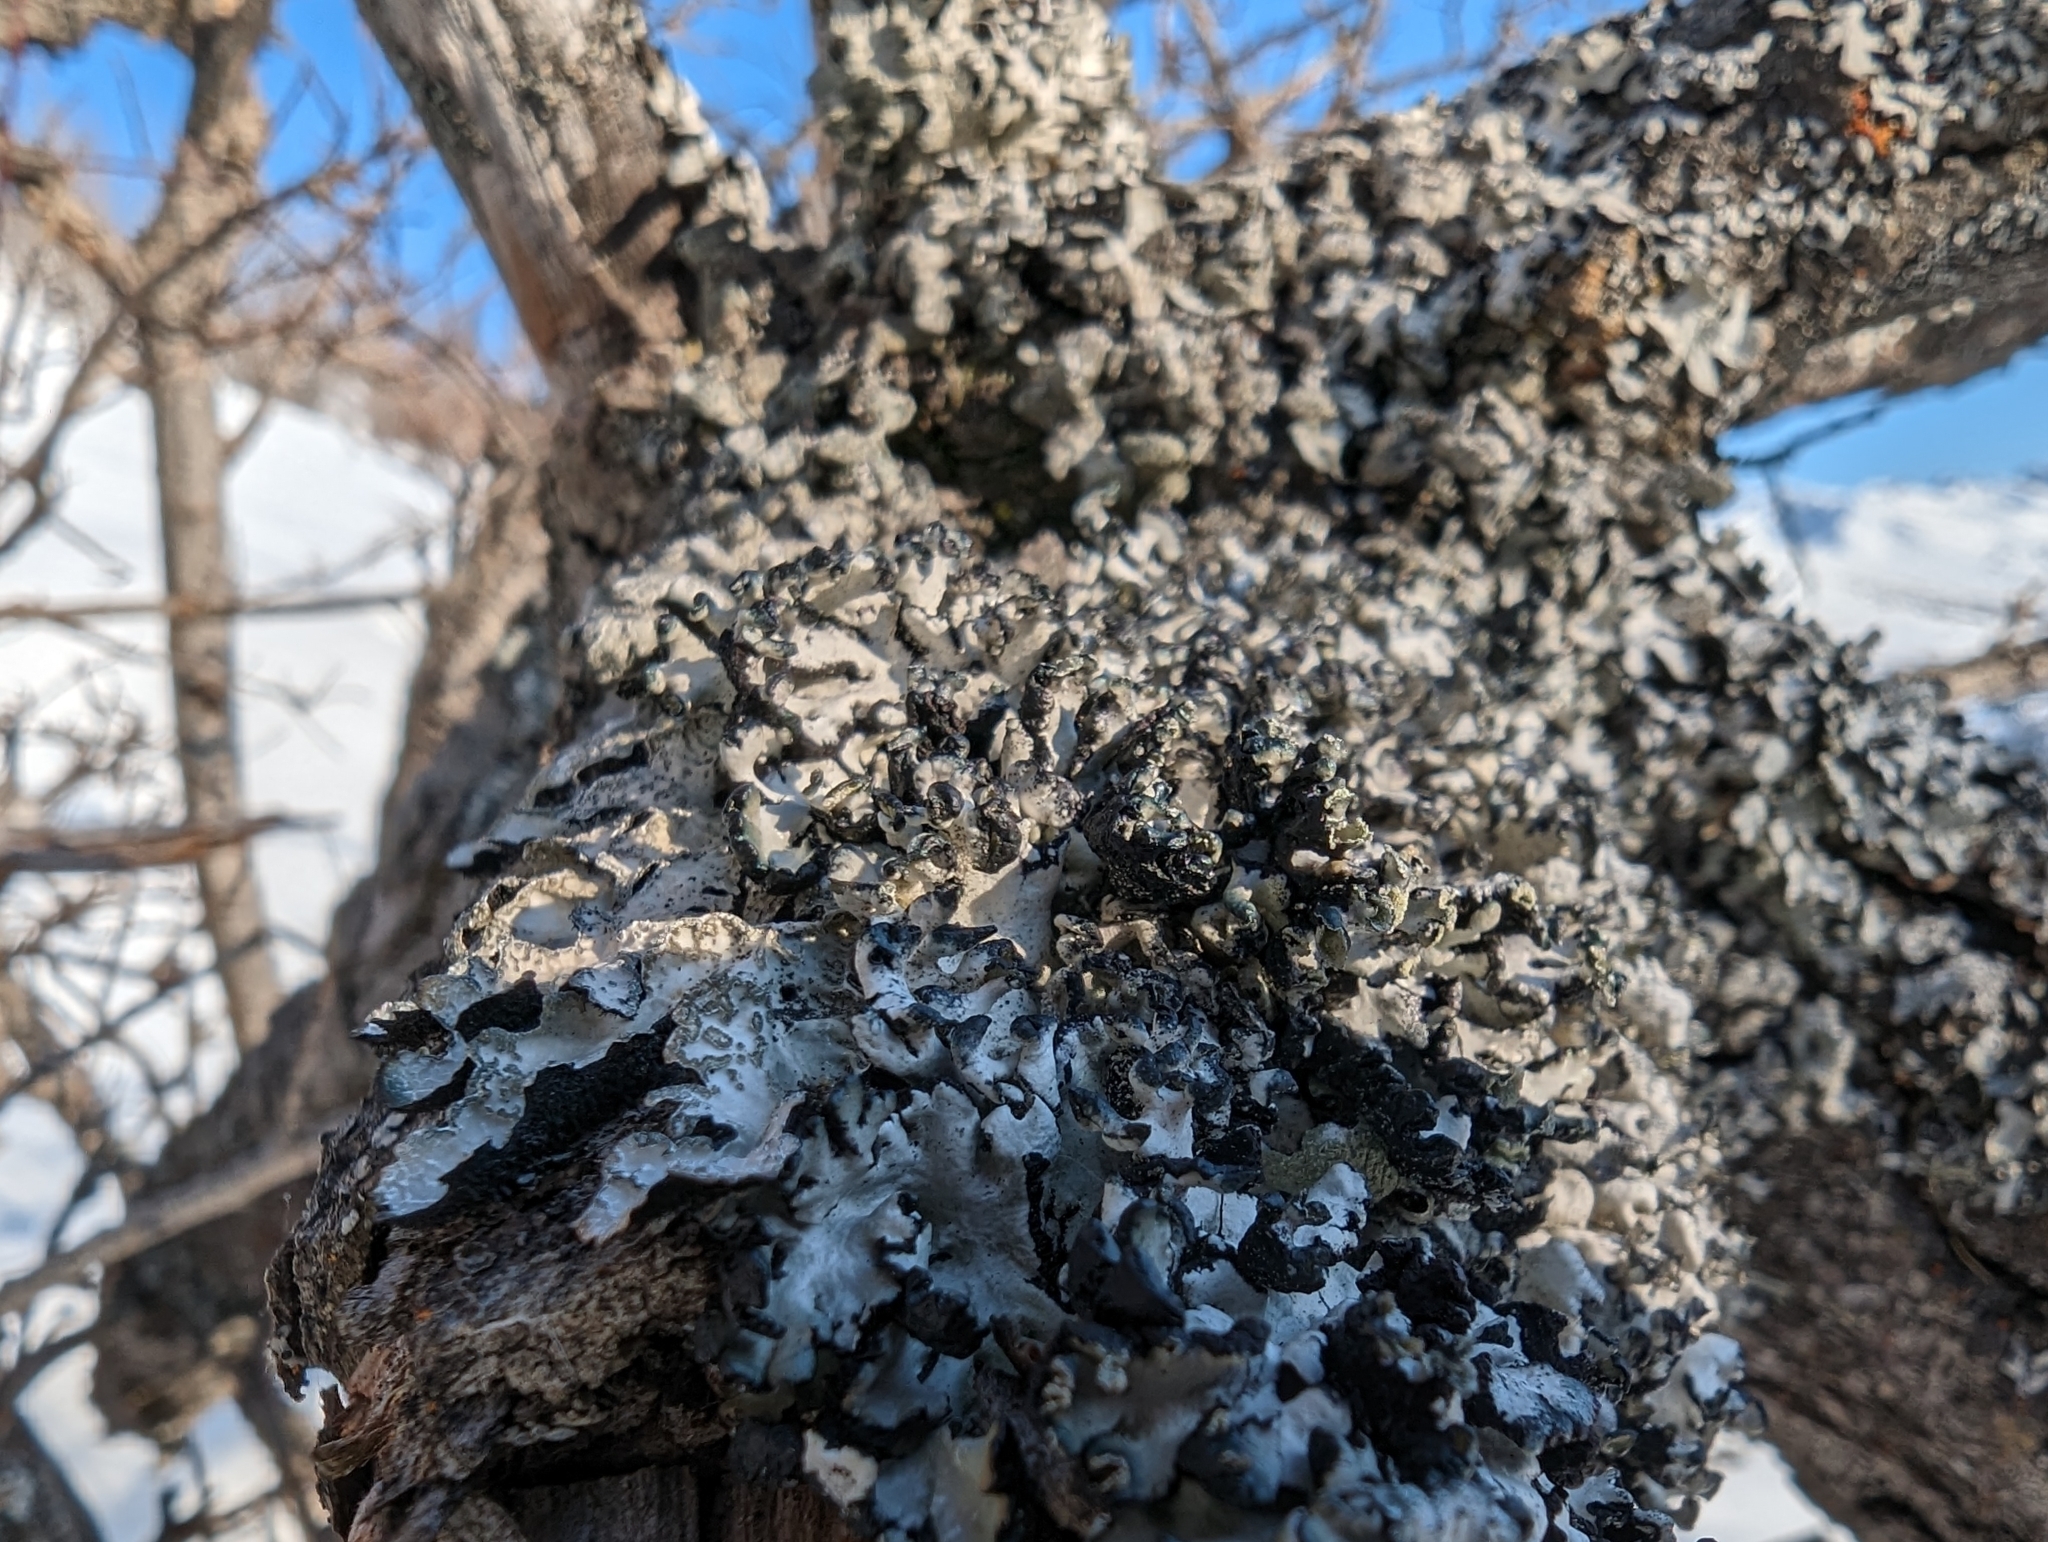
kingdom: Fungi
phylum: Ascomycota
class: Lecanoromycetes
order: Lecanorales
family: Parmeliaceae
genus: Parmelia
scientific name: Parmelia sulcata
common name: Netted shield lichen
